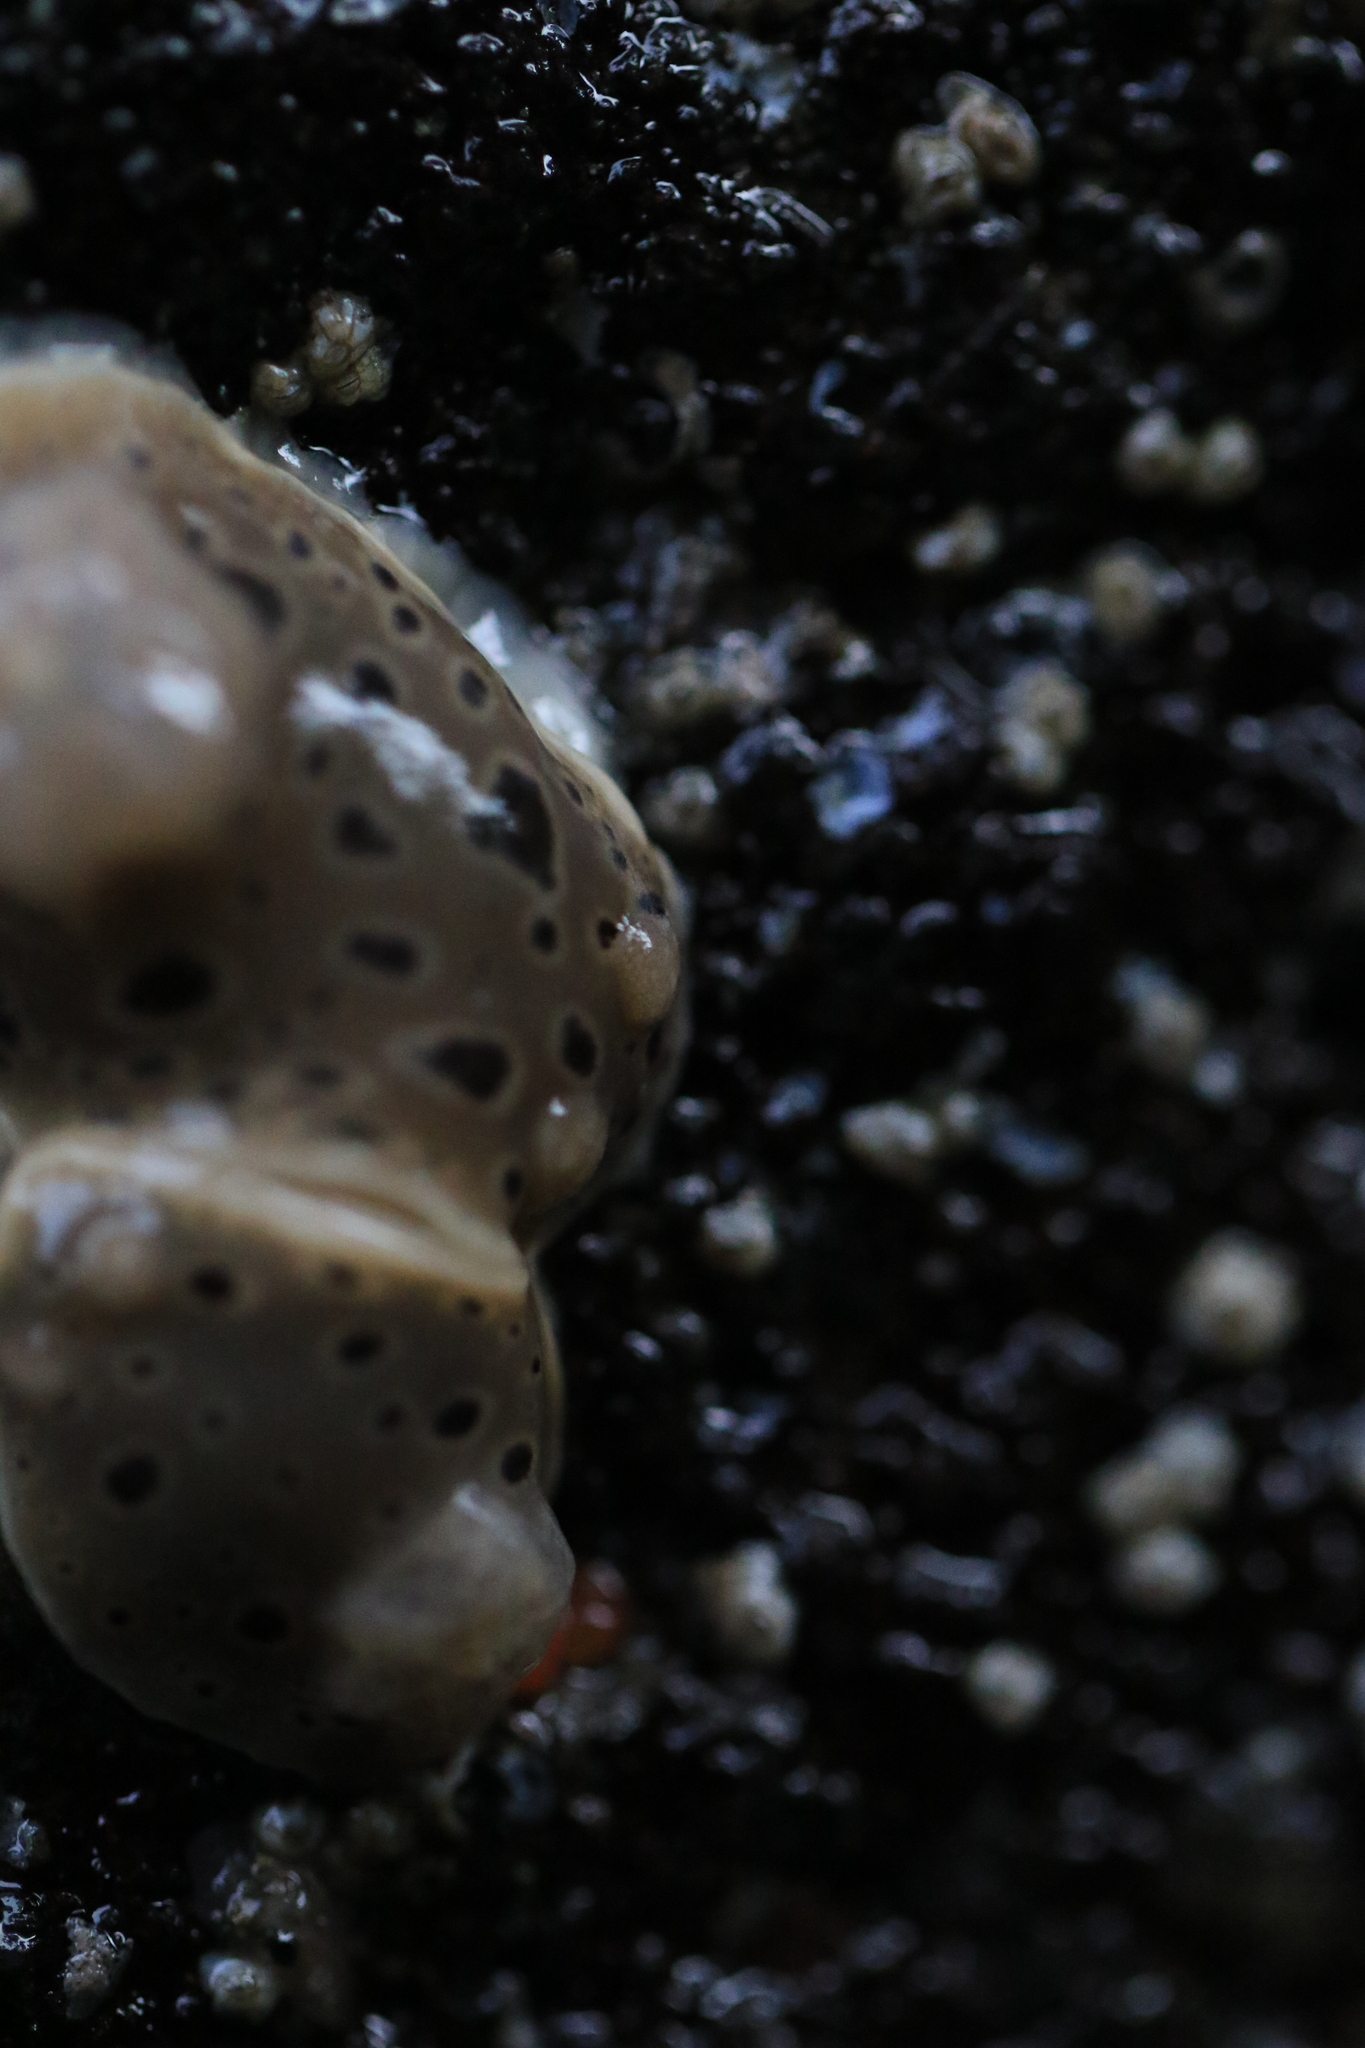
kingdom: Animalia
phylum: Mollusca
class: Gastropoda
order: Nudibranchia
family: Discodorididae
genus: Diaulula
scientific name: Diaulula odonoghuei
